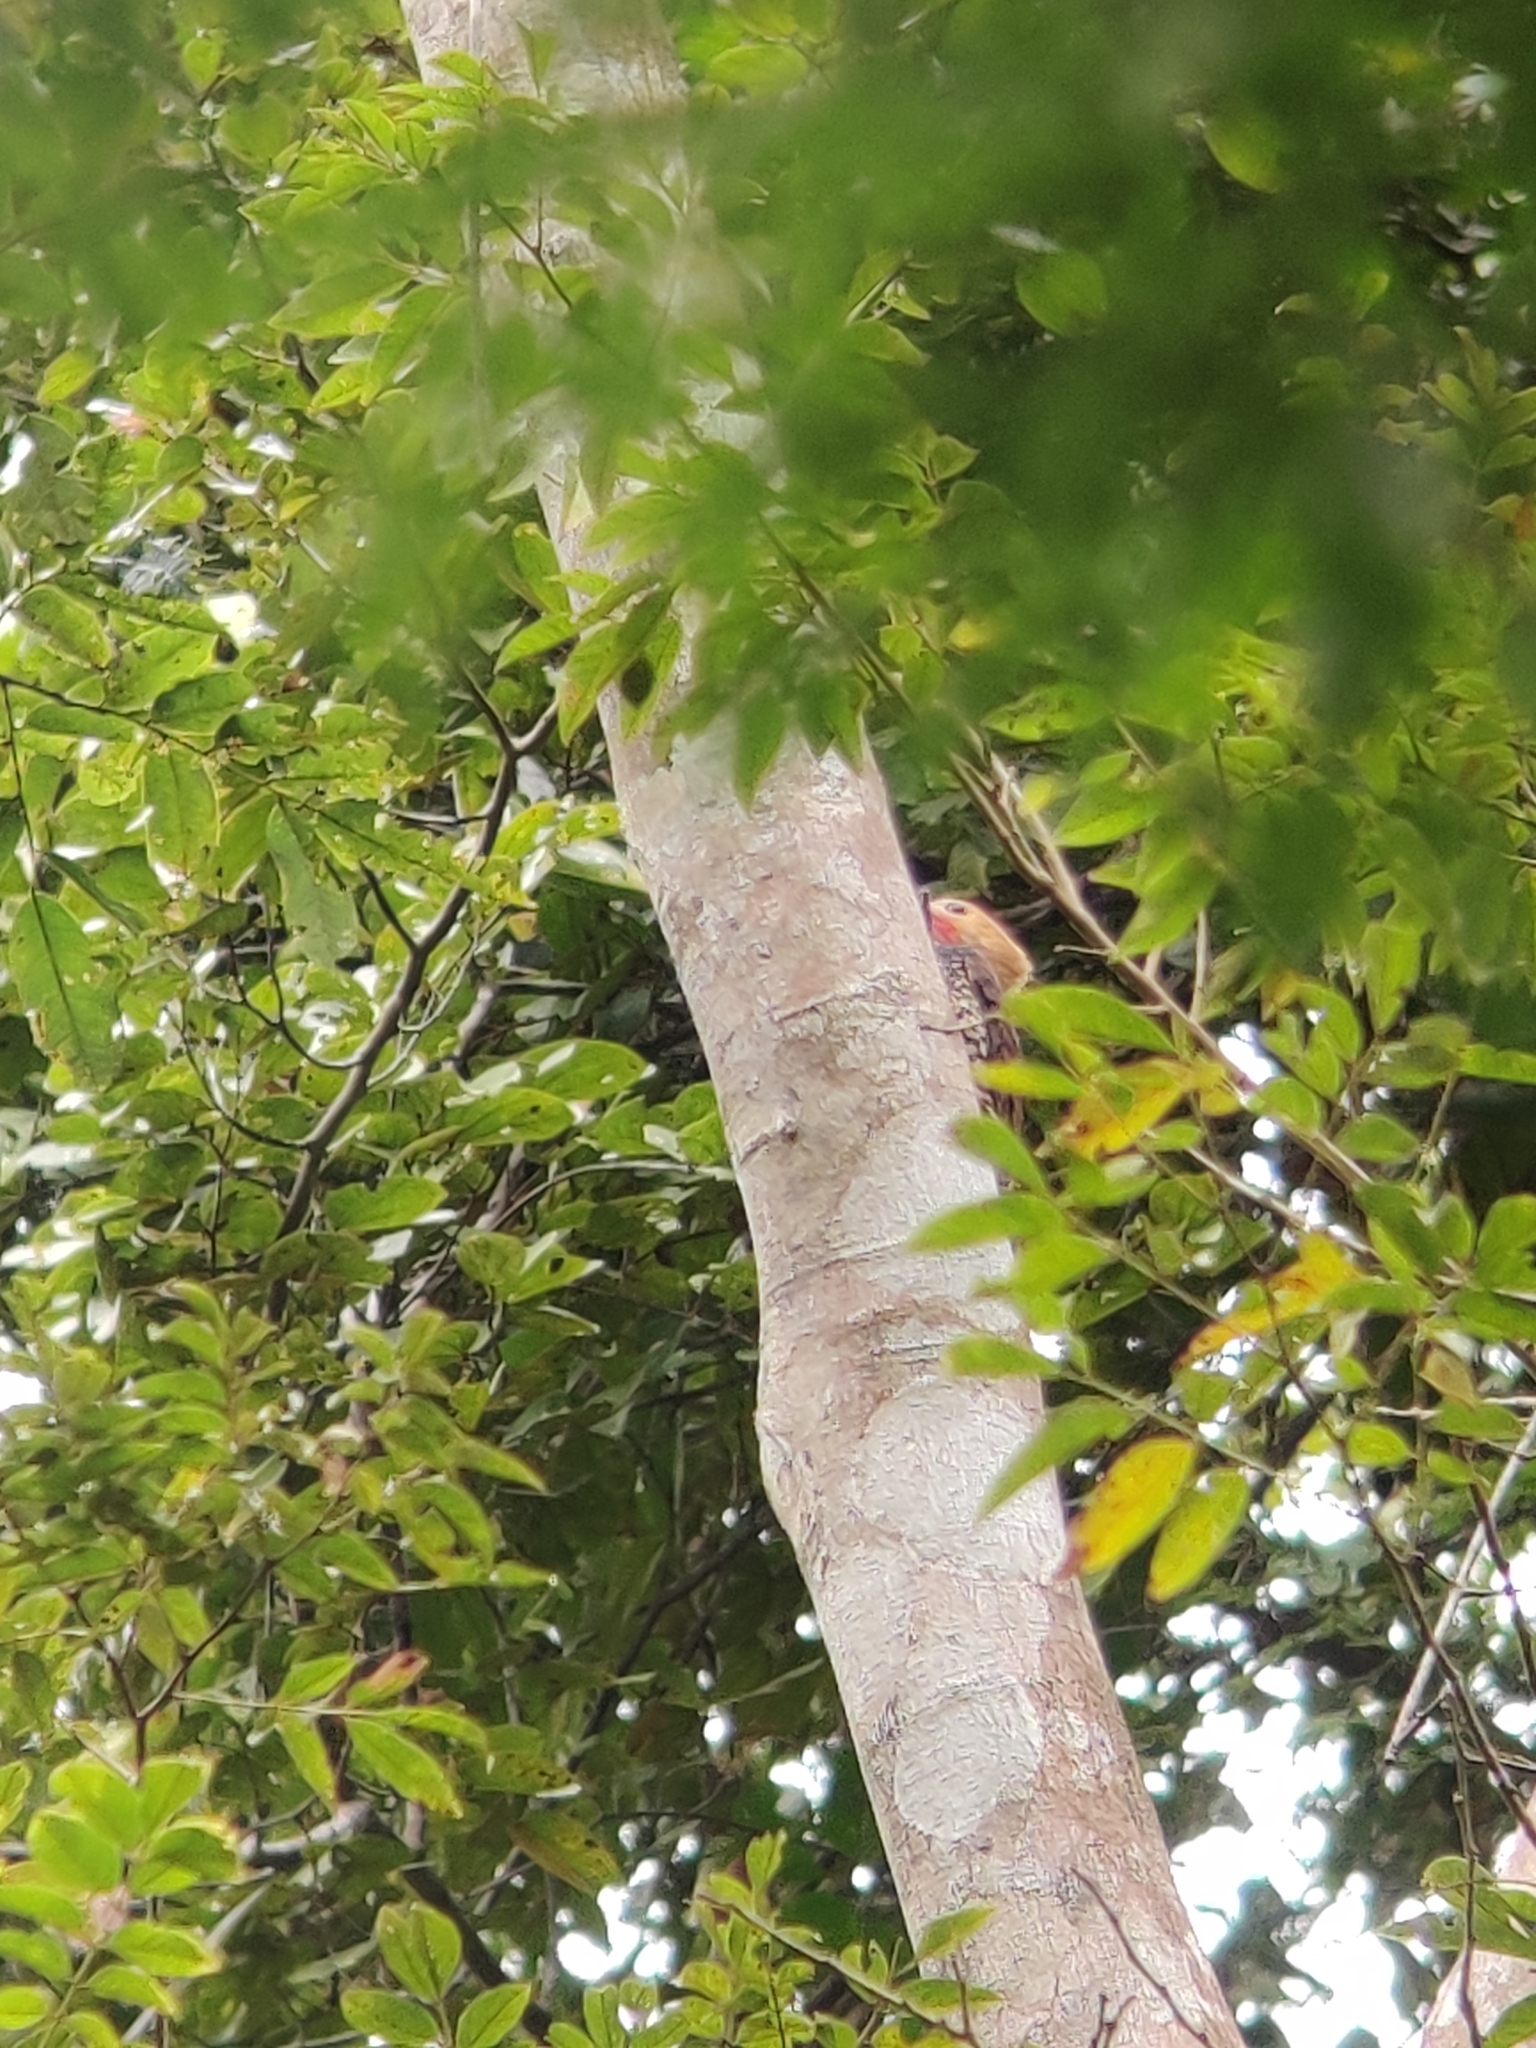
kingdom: Animalia
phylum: Chordata
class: Aves
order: Piciformes
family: Picidae
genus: Celeus
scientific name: Celeus torquatus
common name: Ringed woodpecker
